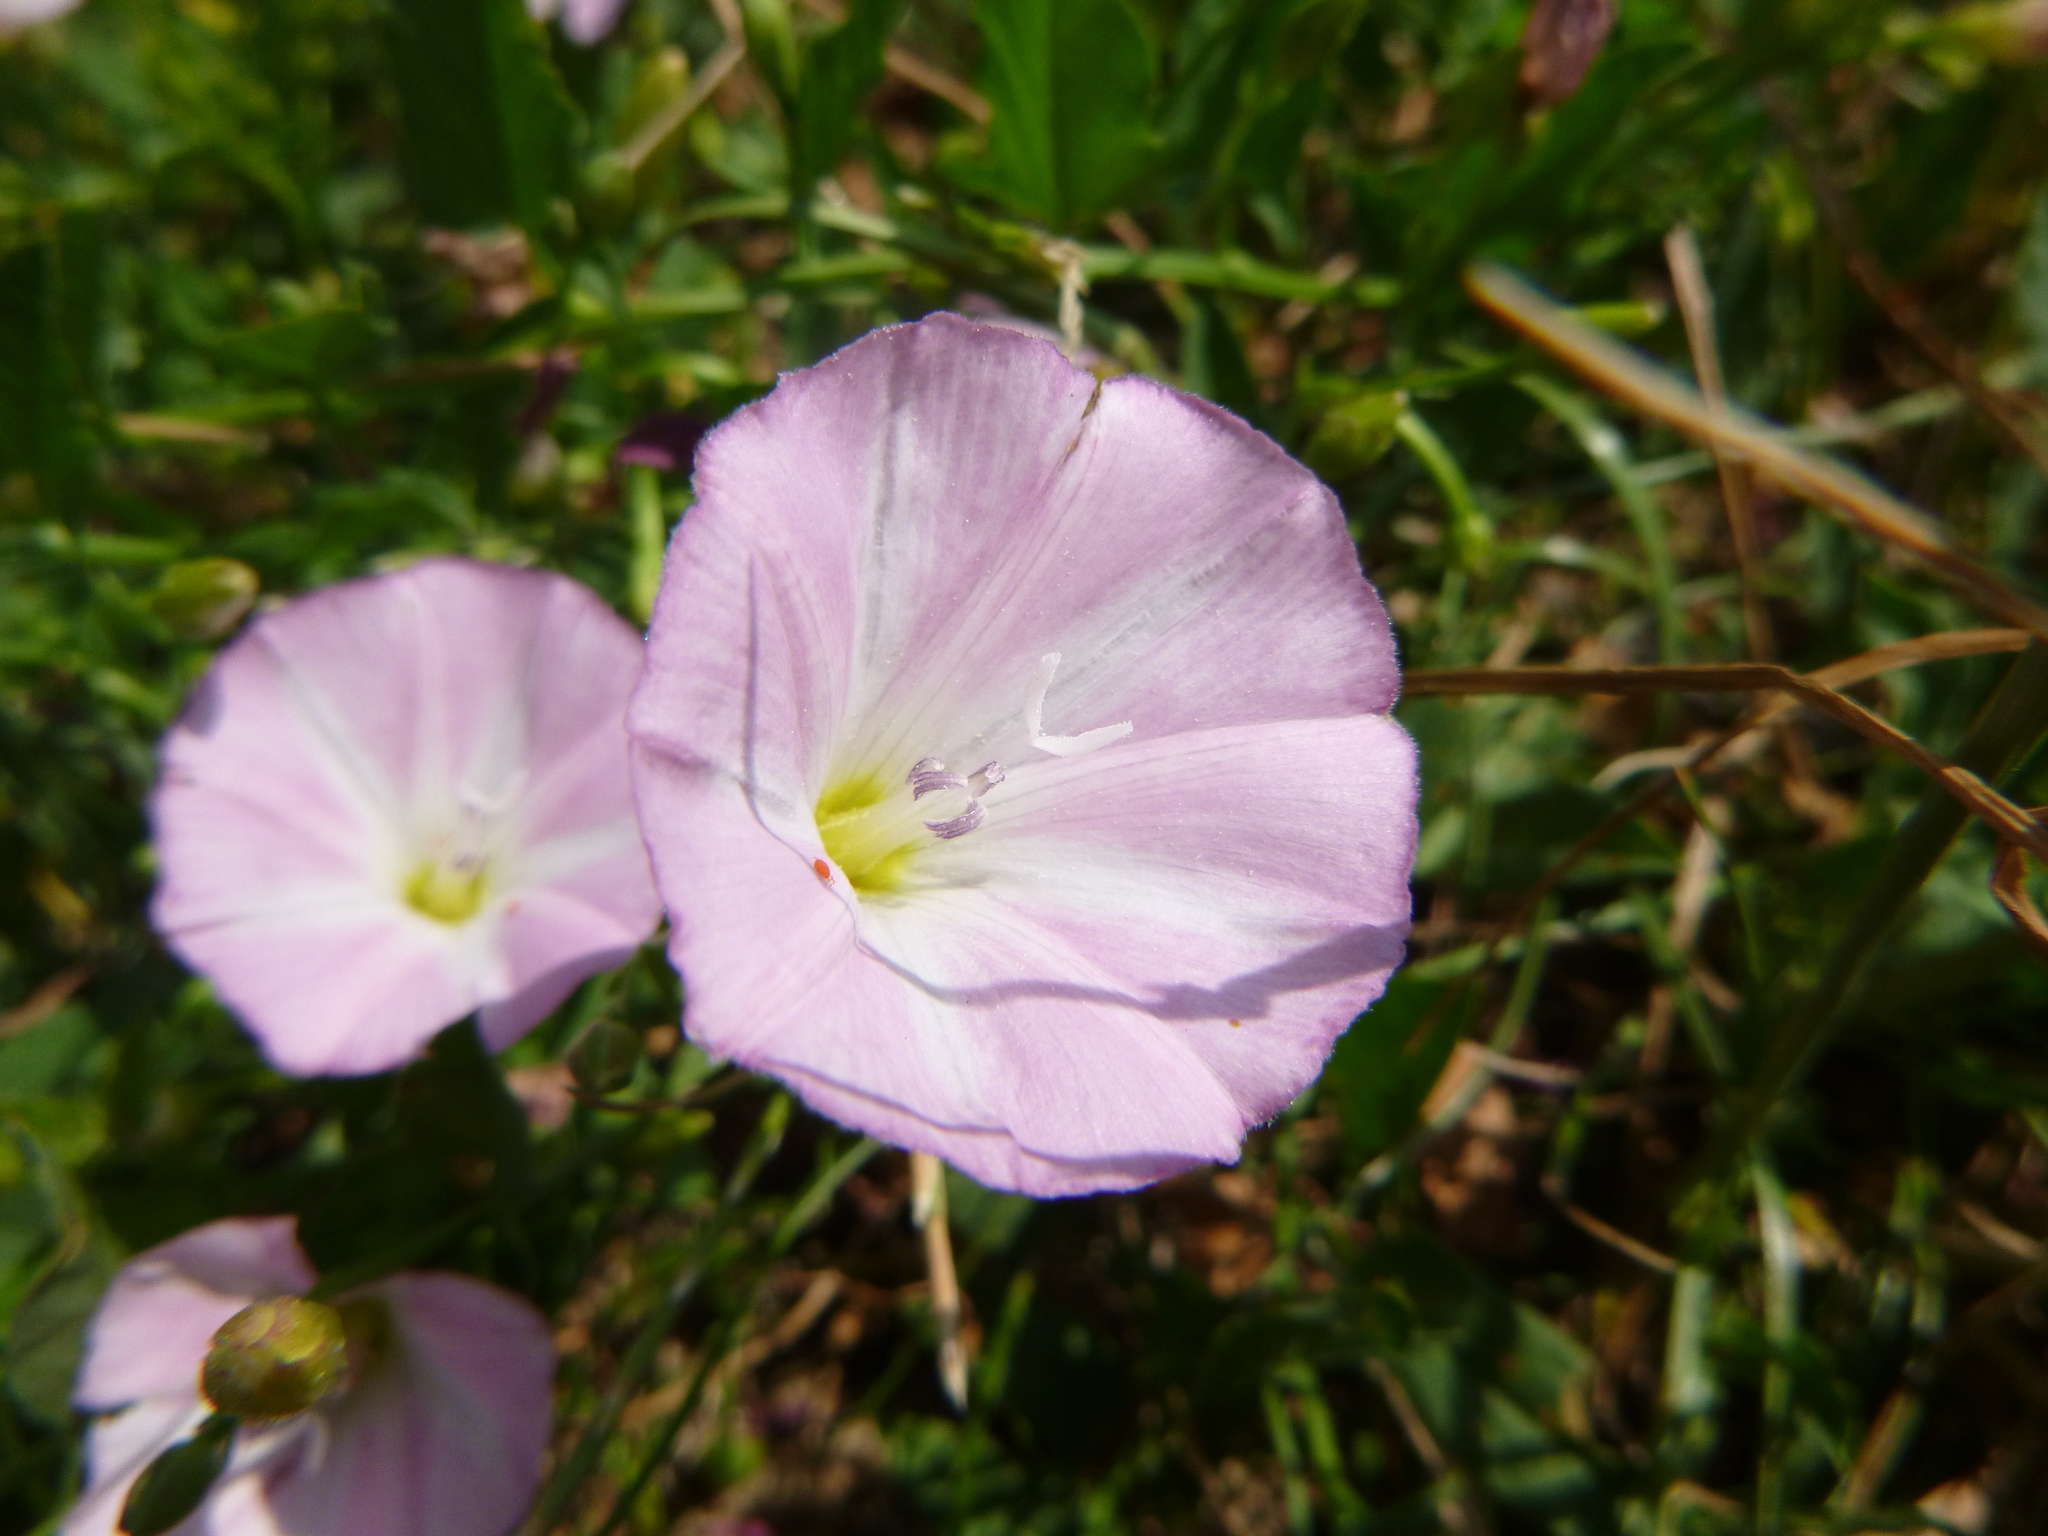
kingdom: Plantae
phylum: Tracheophyta
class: Magnoliopsida
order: Solanales
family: Convolvulaceae
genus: Convolvulus
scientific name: Convolvulus arvensis
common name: Field bindweed
